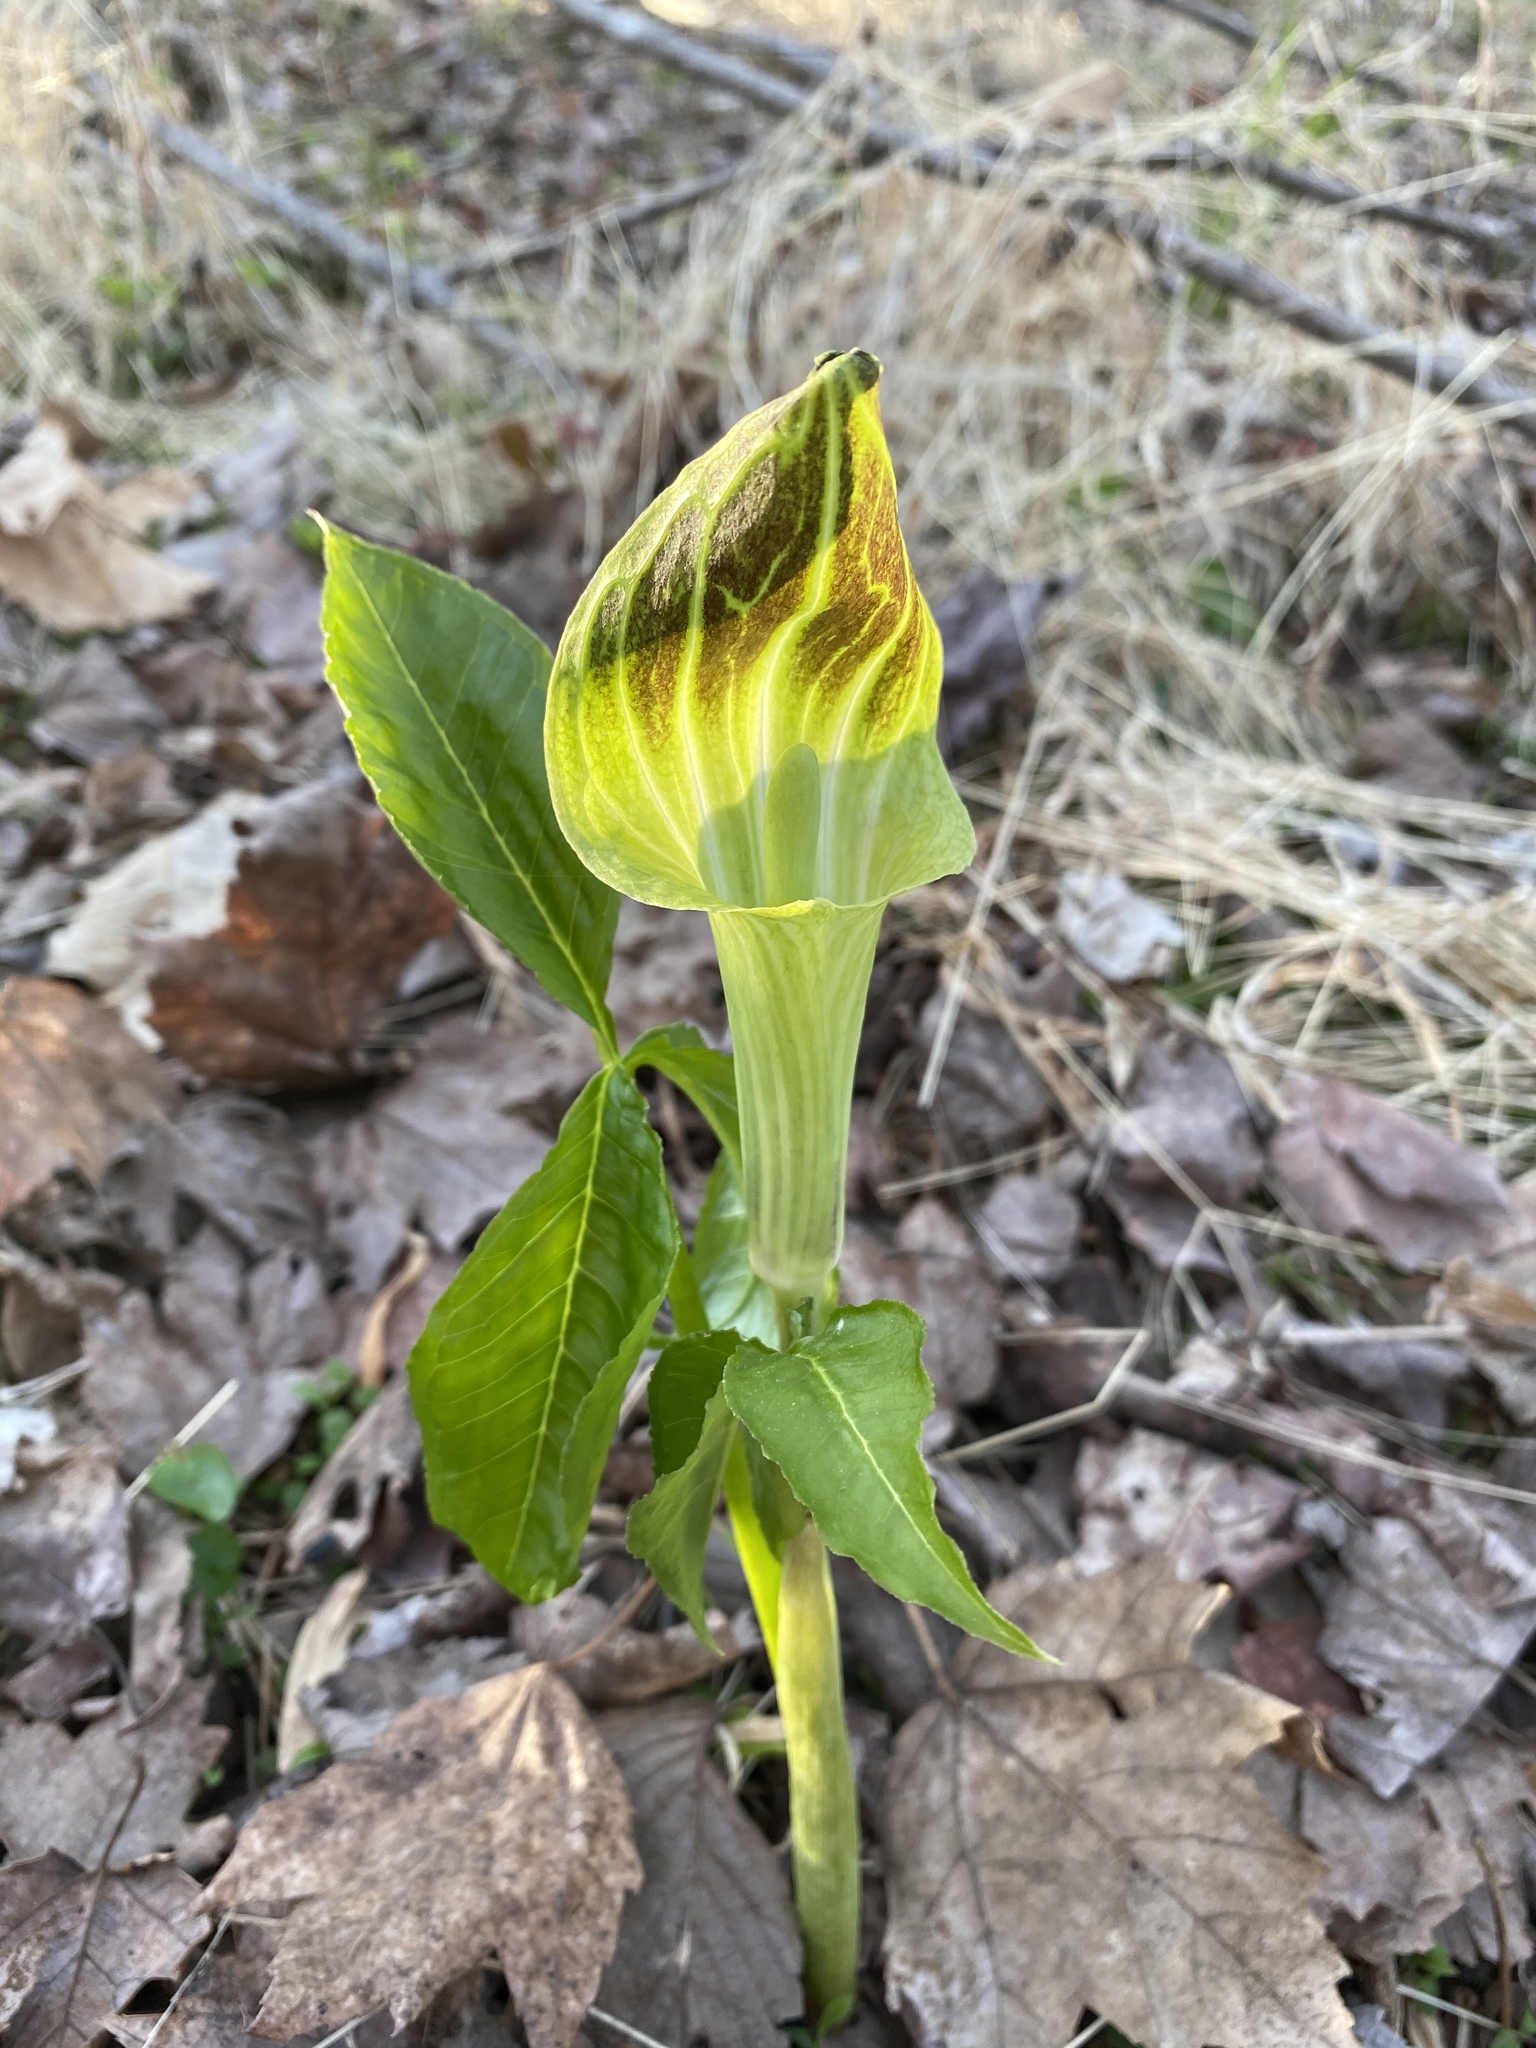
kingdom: Plantae
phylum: Tracheophyta
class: Liliopsida
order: Alismatales
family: Araceae
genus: Arisaema
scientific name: Arisaema triphyllum
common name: Jack-in-the-pulpit
